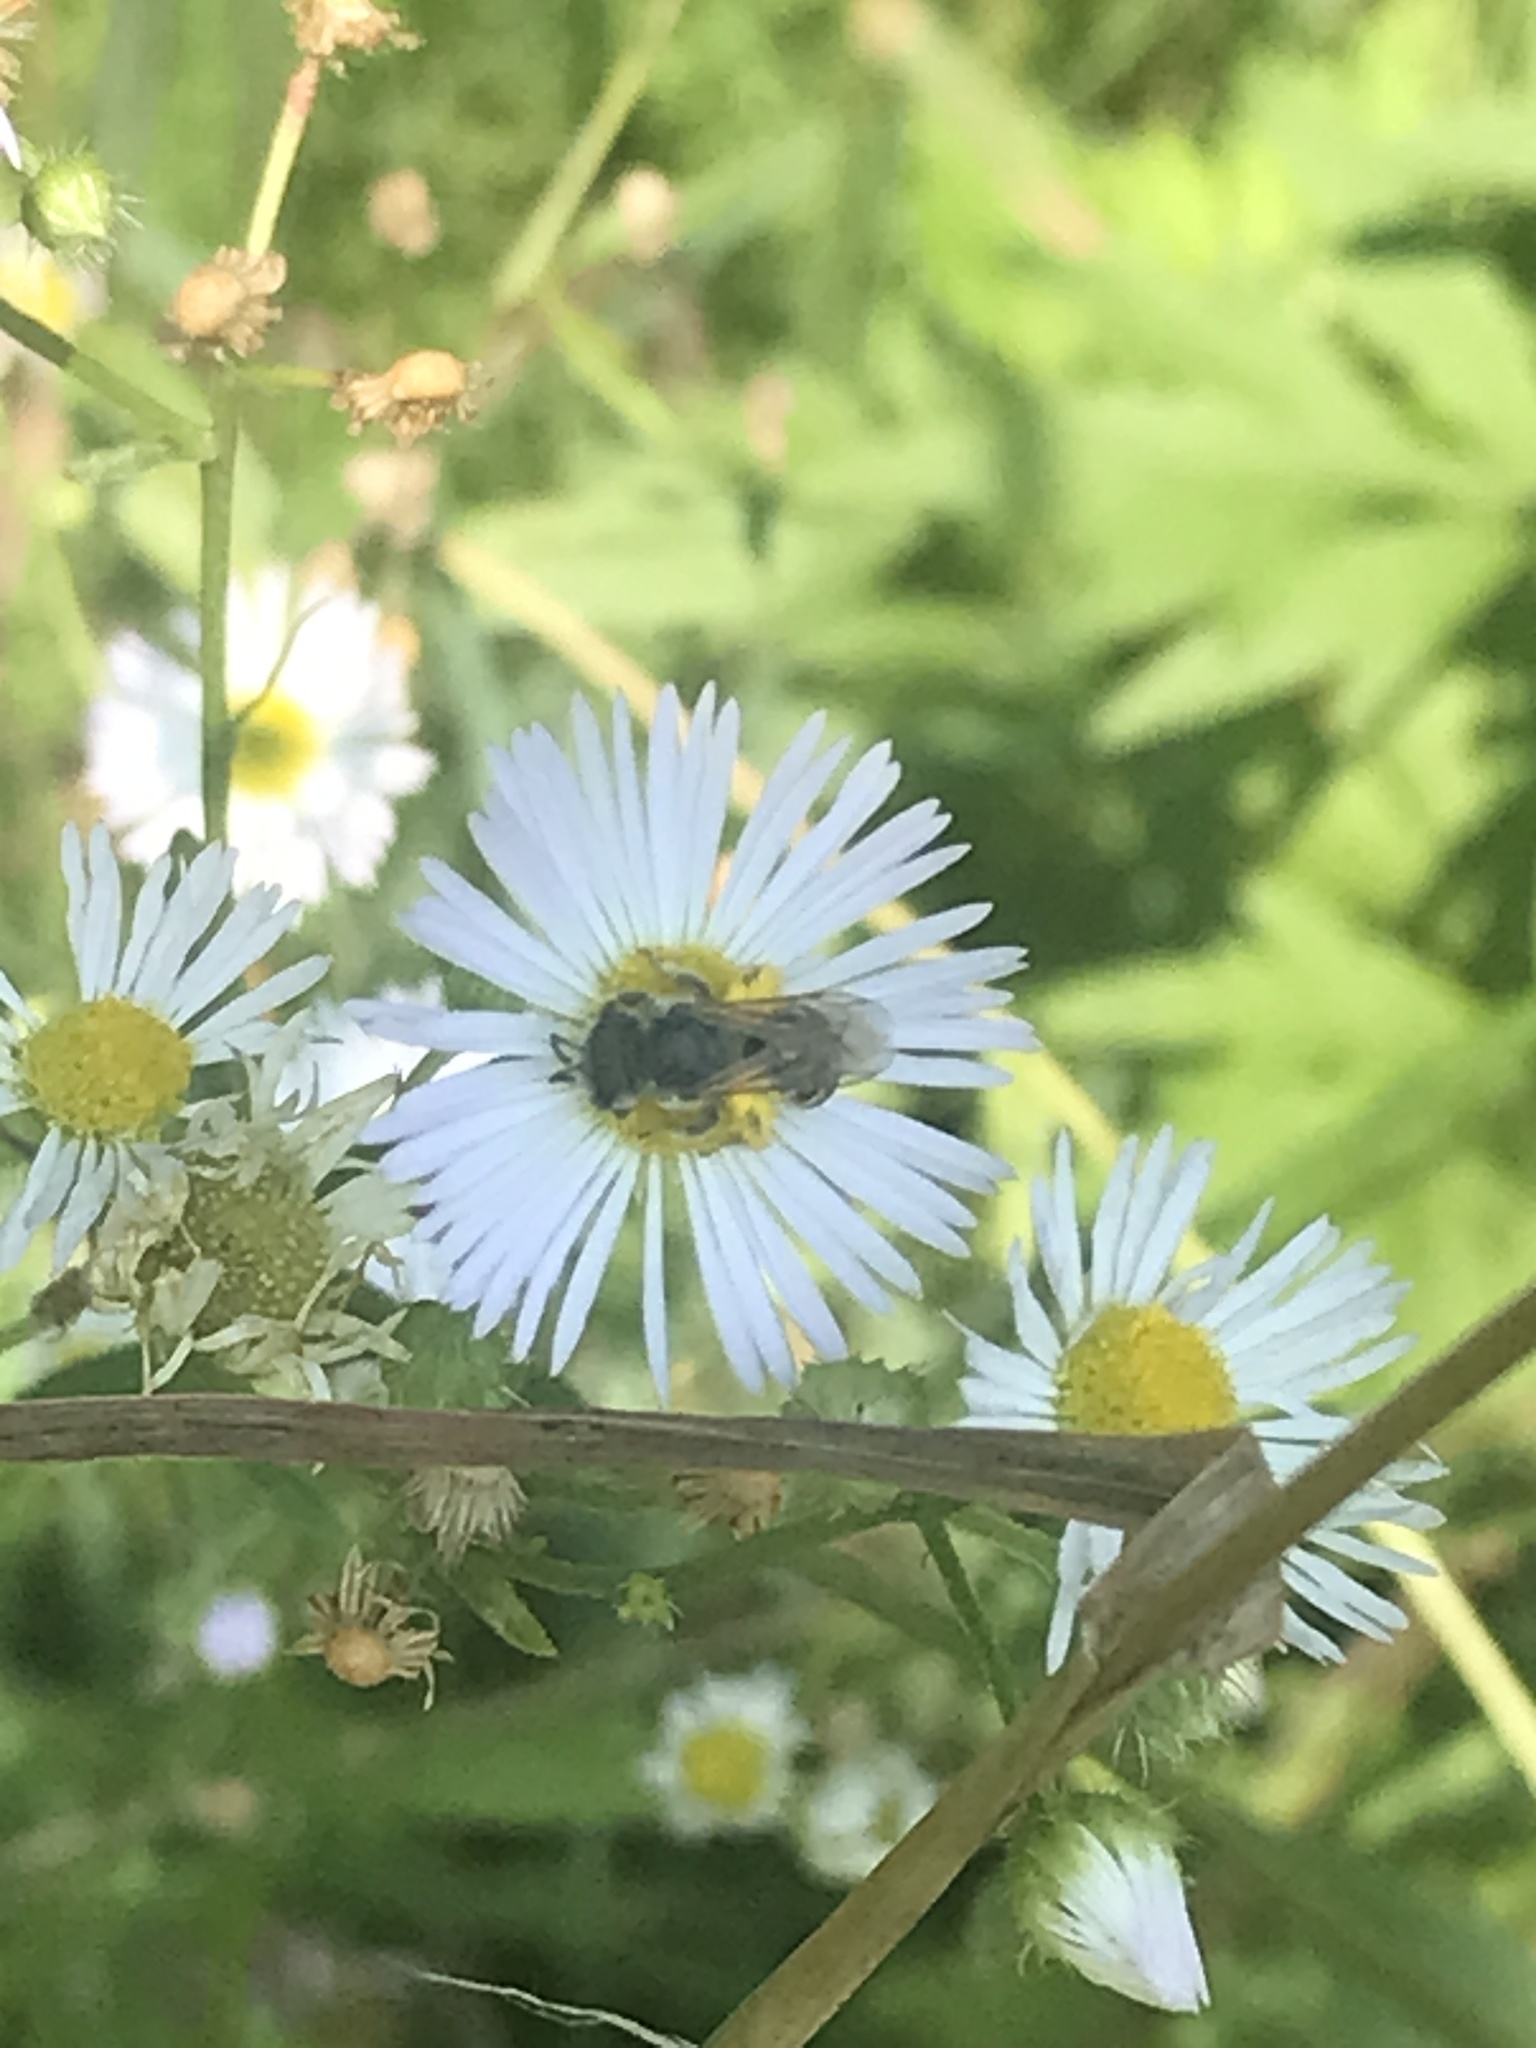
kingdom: Animalia
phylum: Arthropoda
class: Insecta
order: Hymenoptera
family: Halictidae
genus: Halictus
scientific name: Halictus ligatus
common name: Ligated furrow bee
